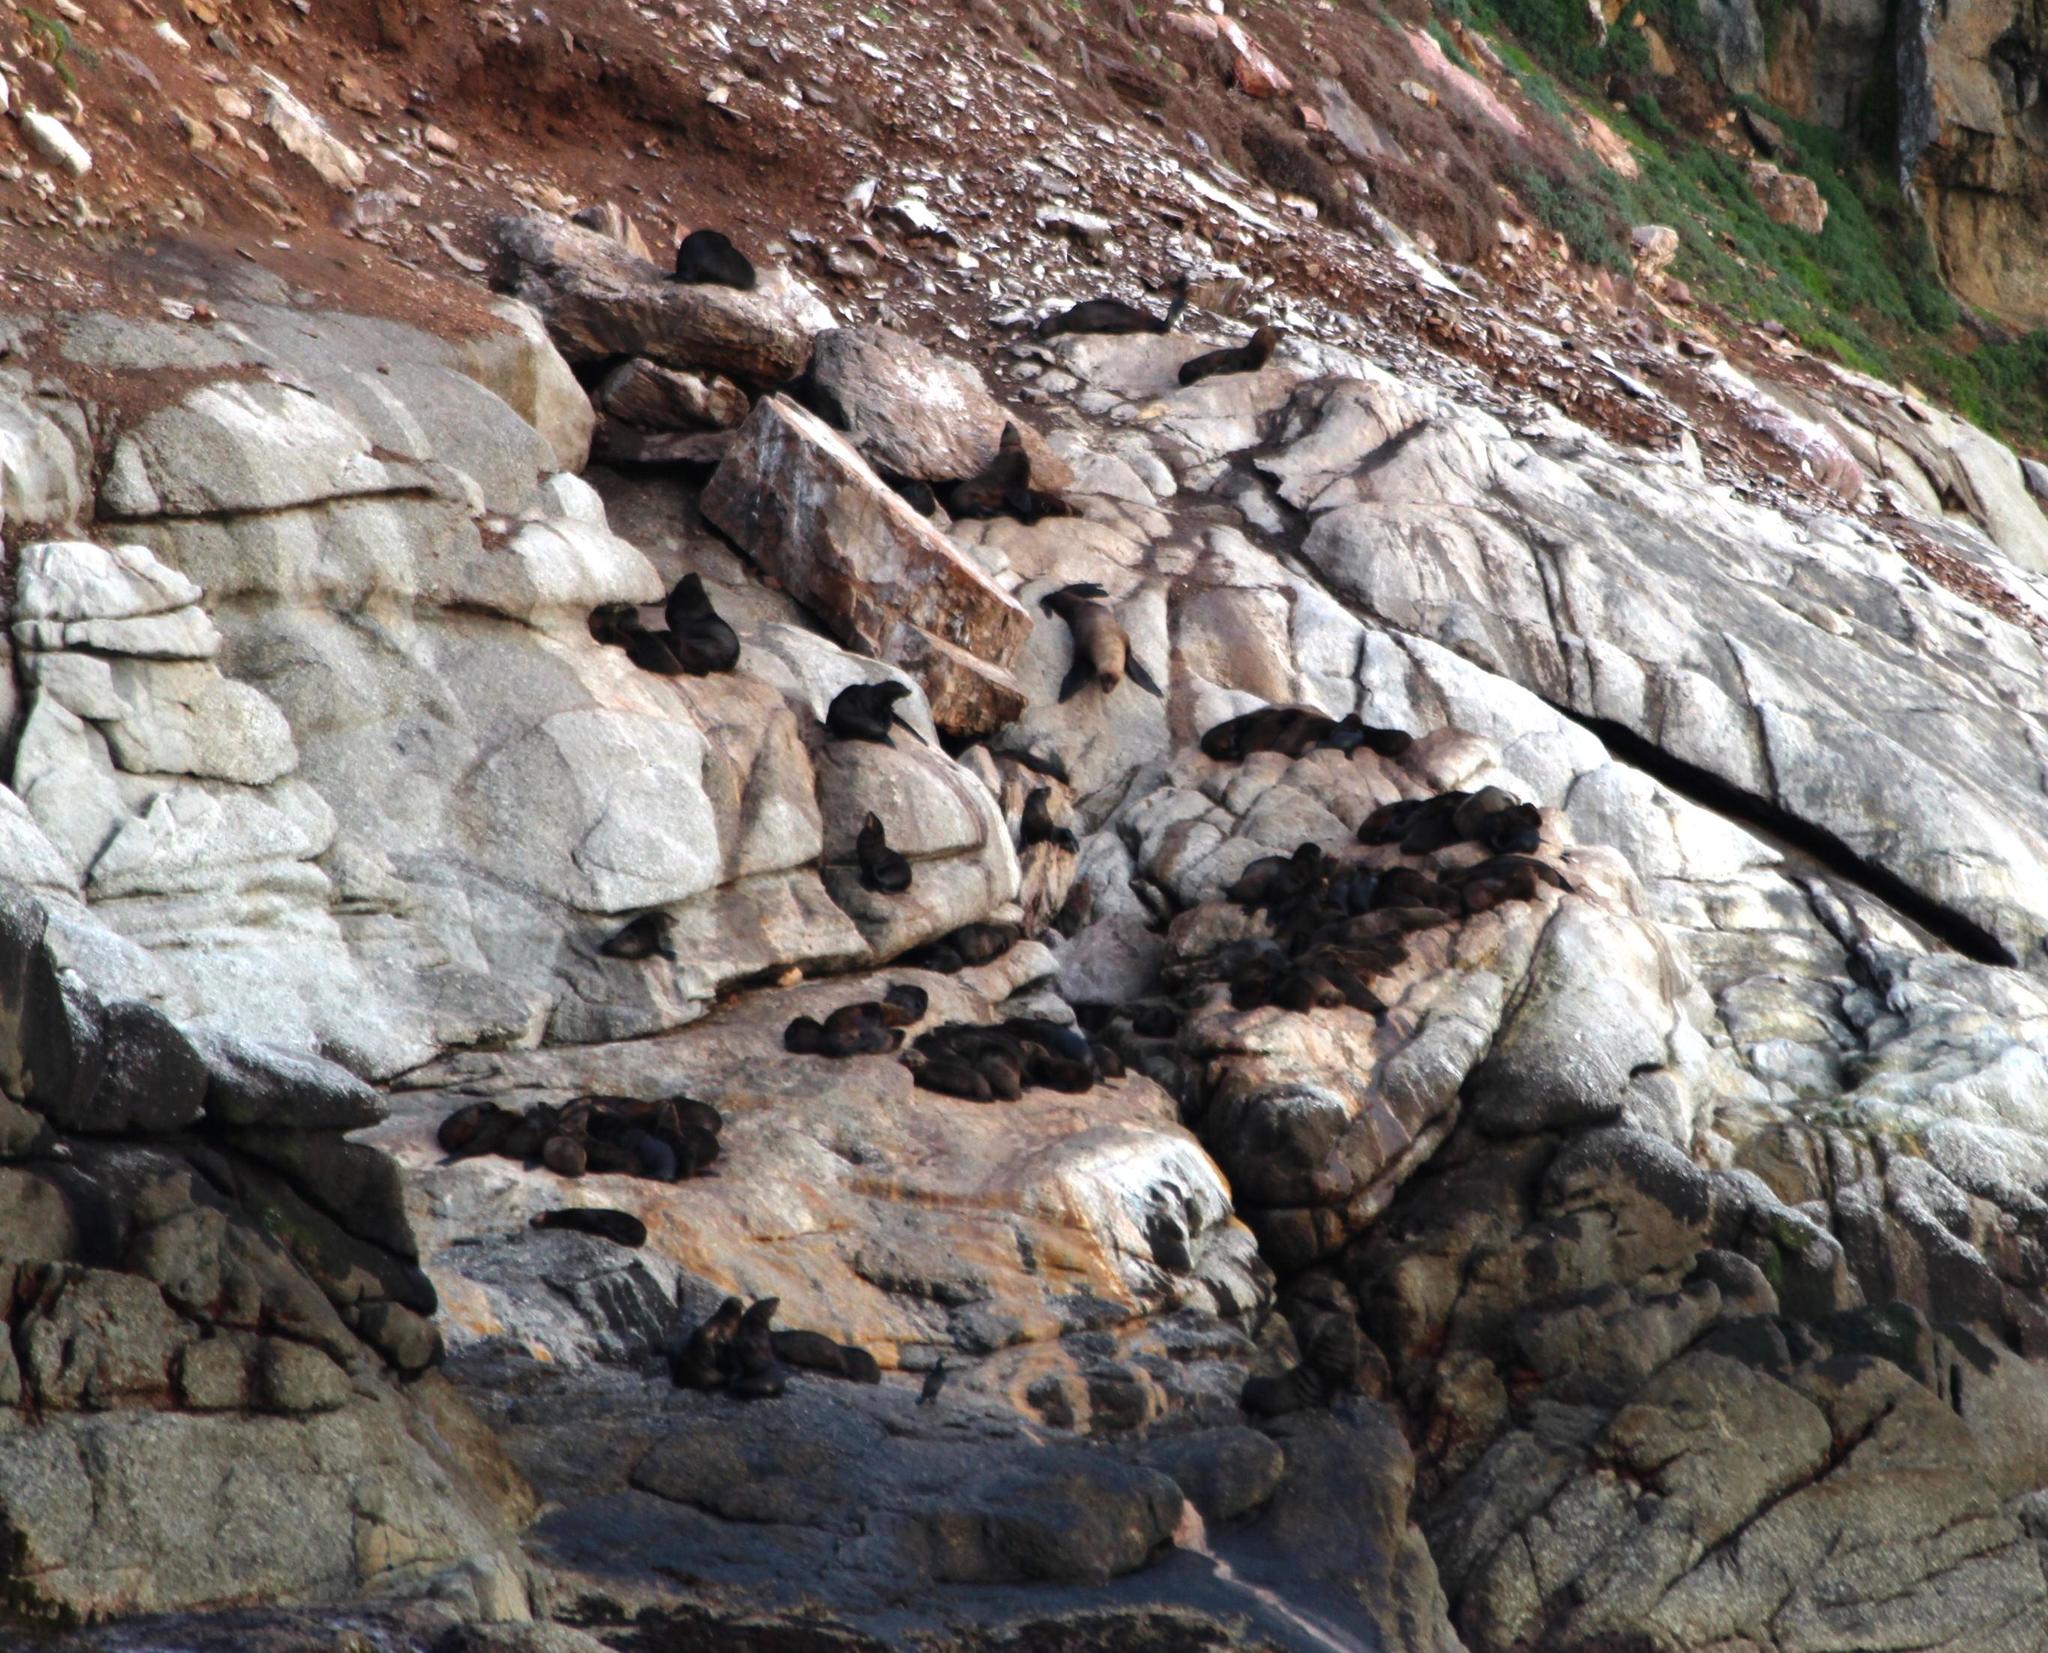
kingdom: Animalia
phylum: Chordata
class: Mammalia
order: Carnivora
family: Otariidae
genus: Arctocephalus
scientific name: Arctocephalus pusillus
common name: Brown fur seal
